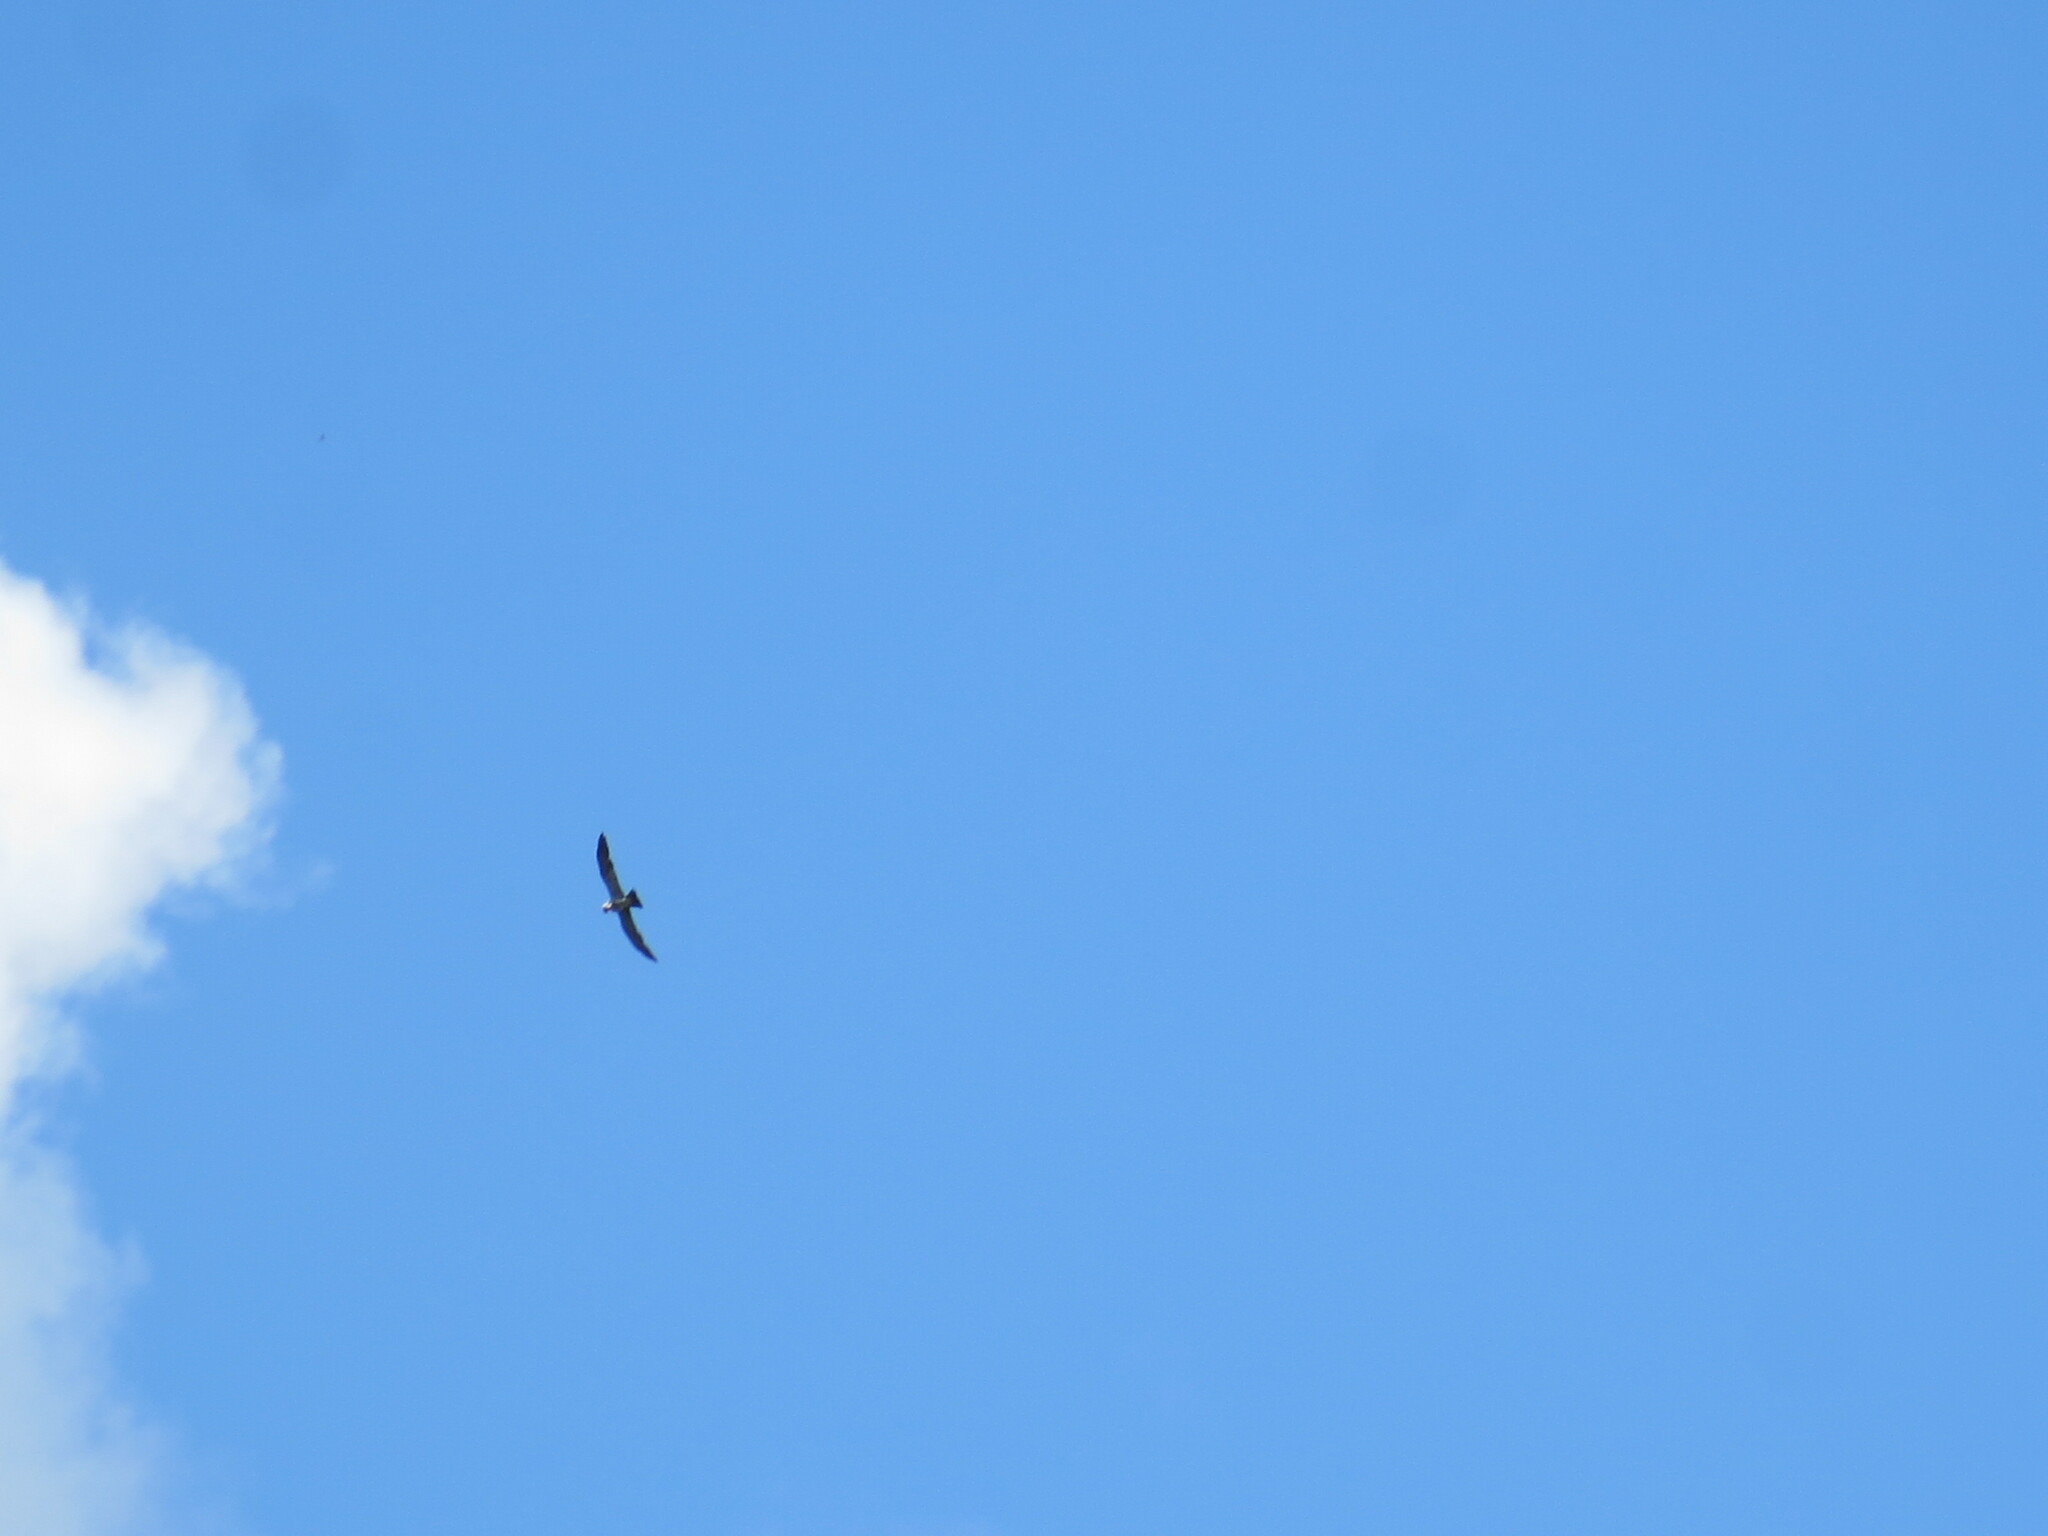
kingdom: Animalia
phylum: Chordata
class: Aves
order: Accipitriformes
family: Accipitridae
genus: Ictinia
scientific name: Ictinia mississippiensis
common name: Mississippi kite
